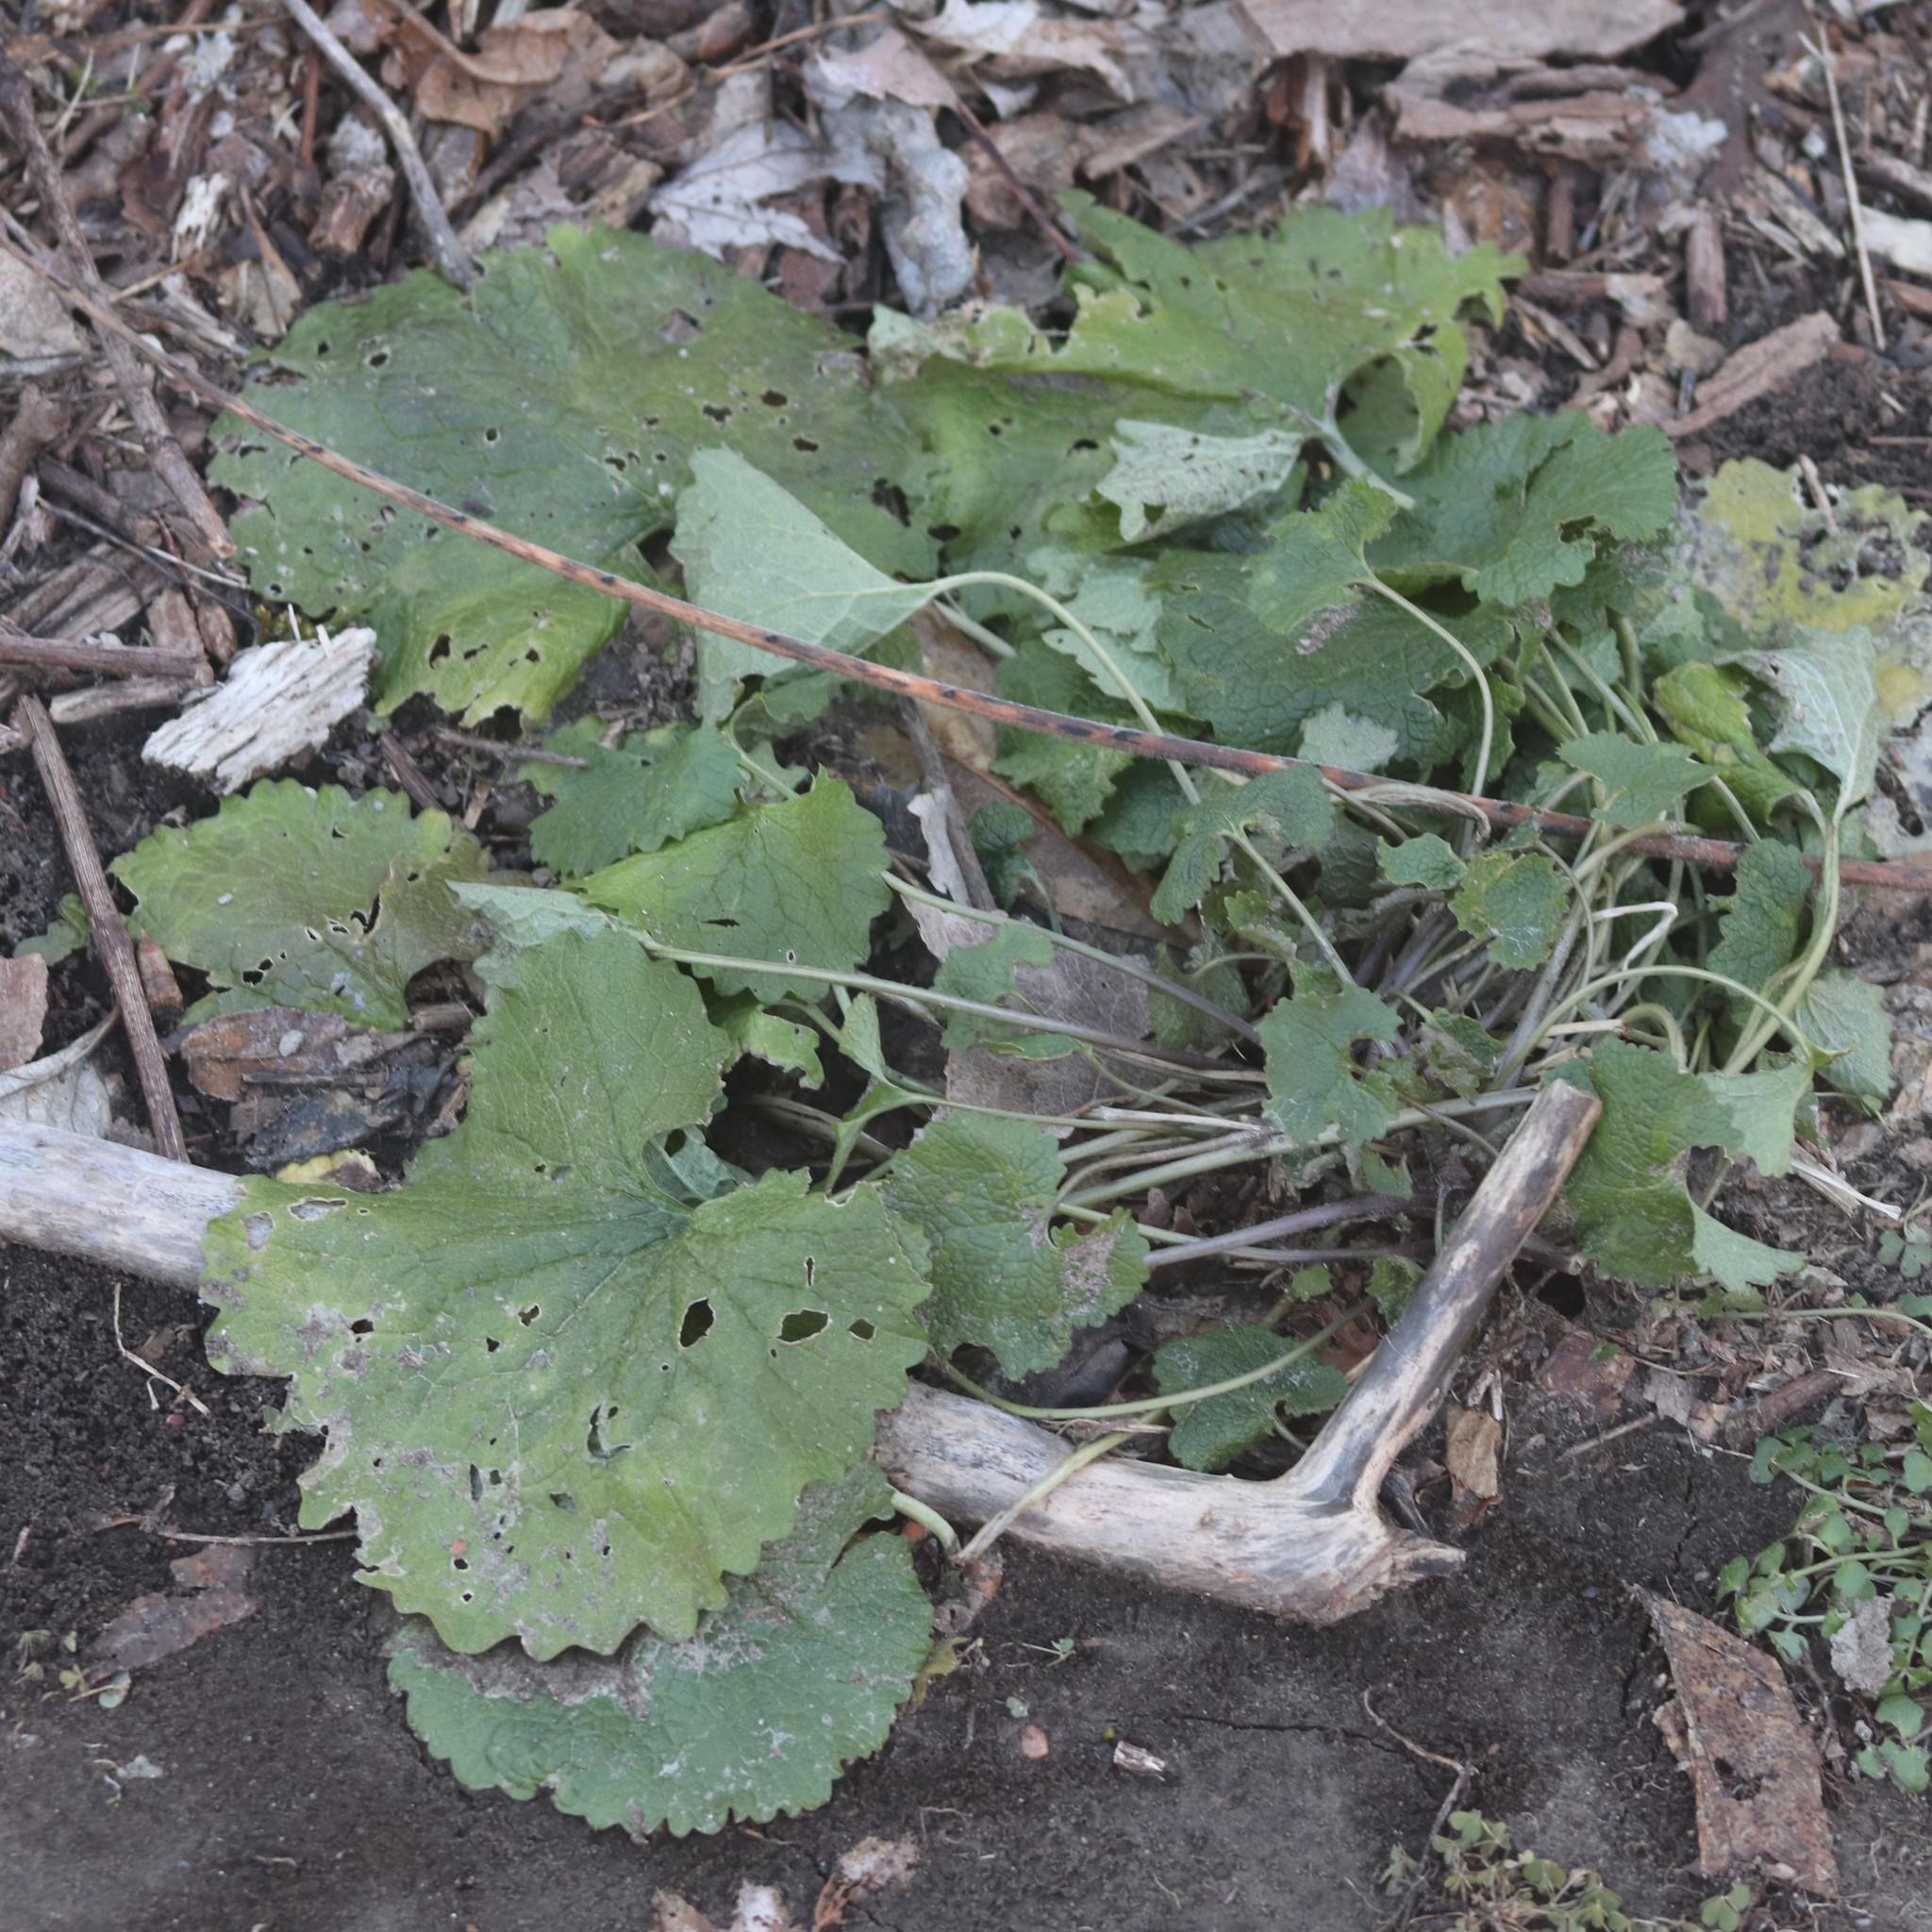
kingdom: Plantae
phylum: Tracheophyta
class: Magnoliopsida
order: Brassicales
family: Brassicaceae
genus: Alliaria
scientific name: Alliaria petiolata
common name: Garlic mustard
